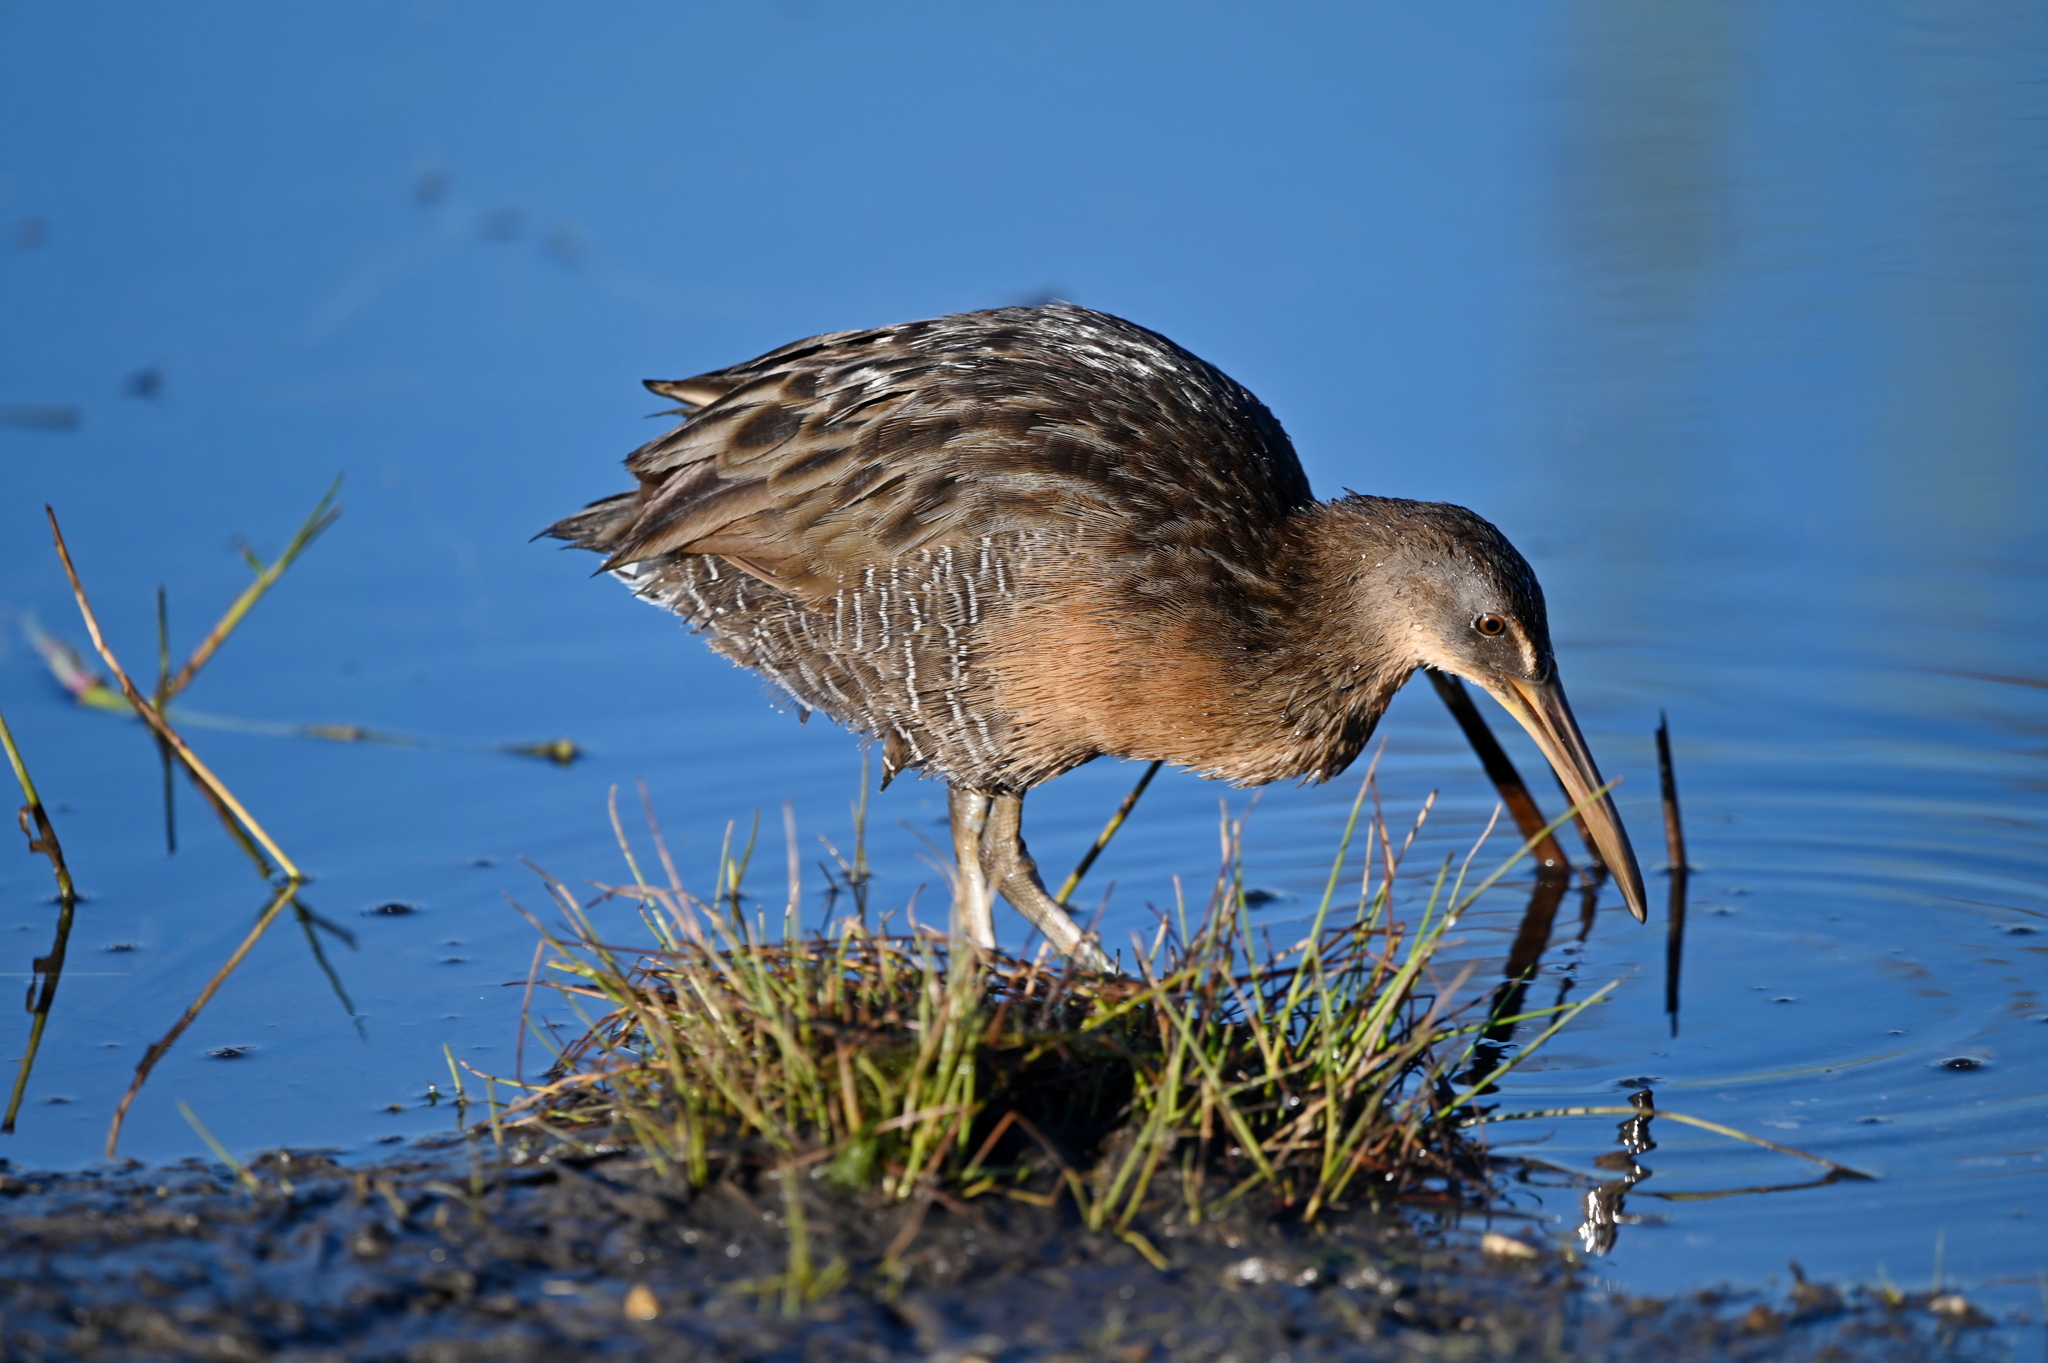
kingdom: Animalia
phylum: Chordata
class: Aves
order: Gruiformes
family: Rallidae
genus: Rallus
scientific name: Rallus crepitans
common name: Clapper rail
